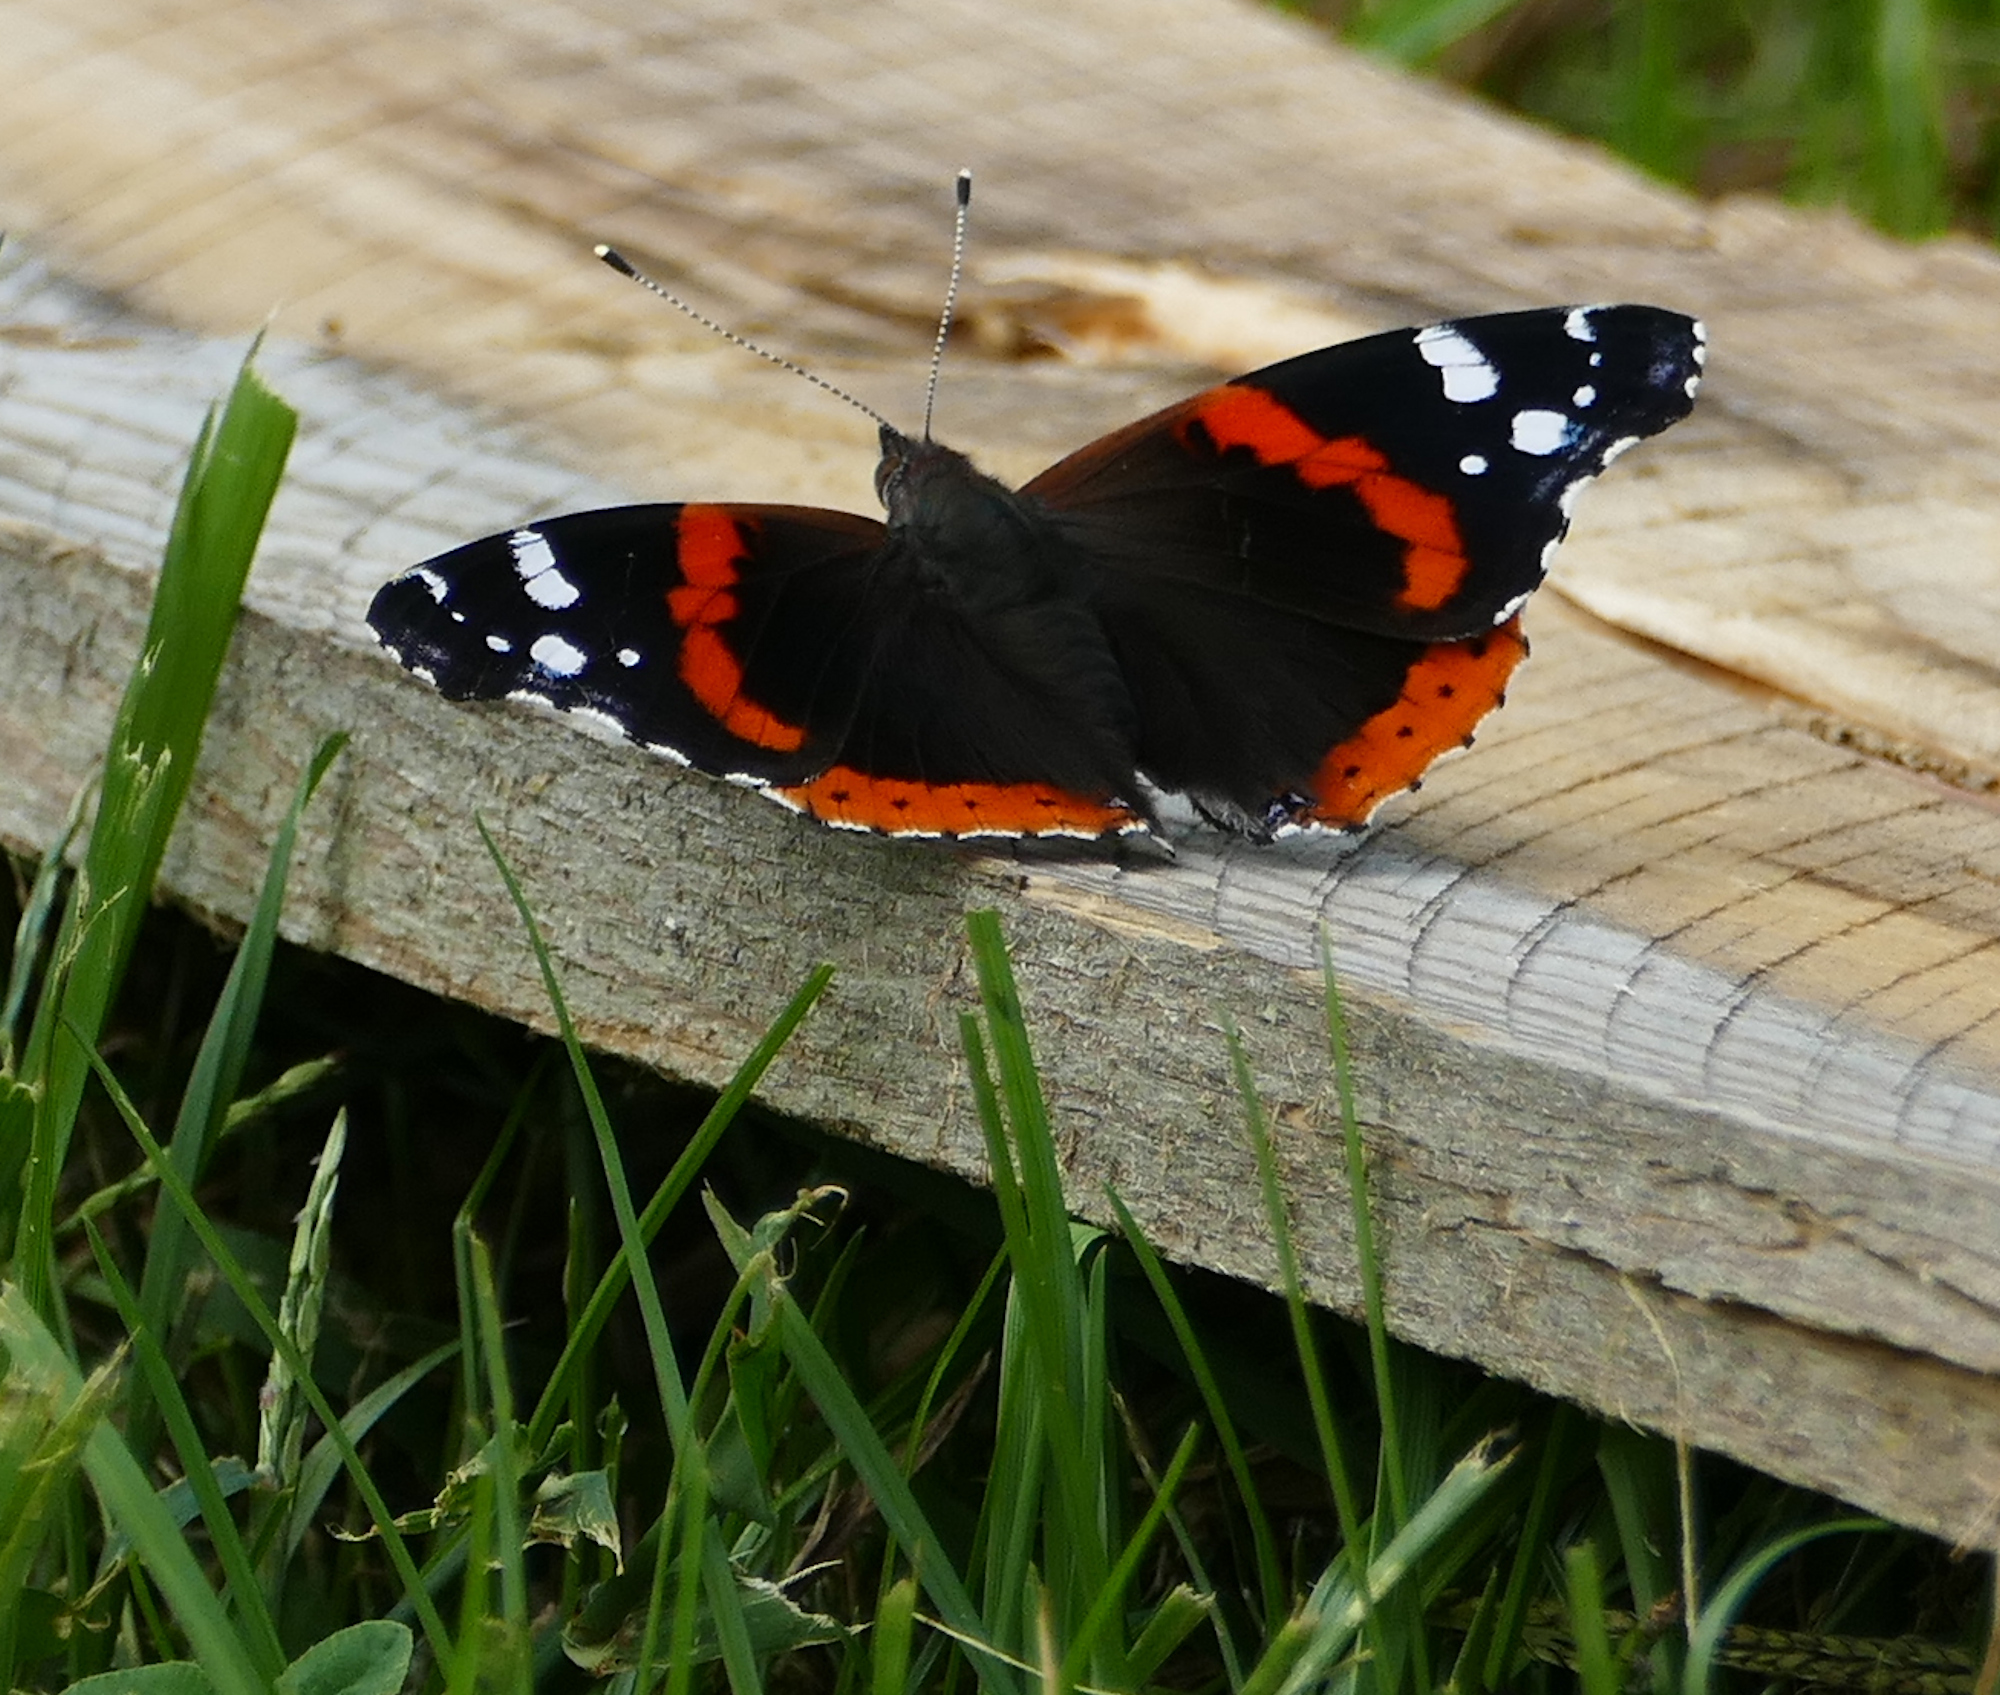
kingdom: Animalia
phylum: Arthropoda
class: Insecta
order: Lepidoptera
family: Nymphalidae
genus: Vanessa
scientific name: Vanessa atalanta
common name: Red admiral
